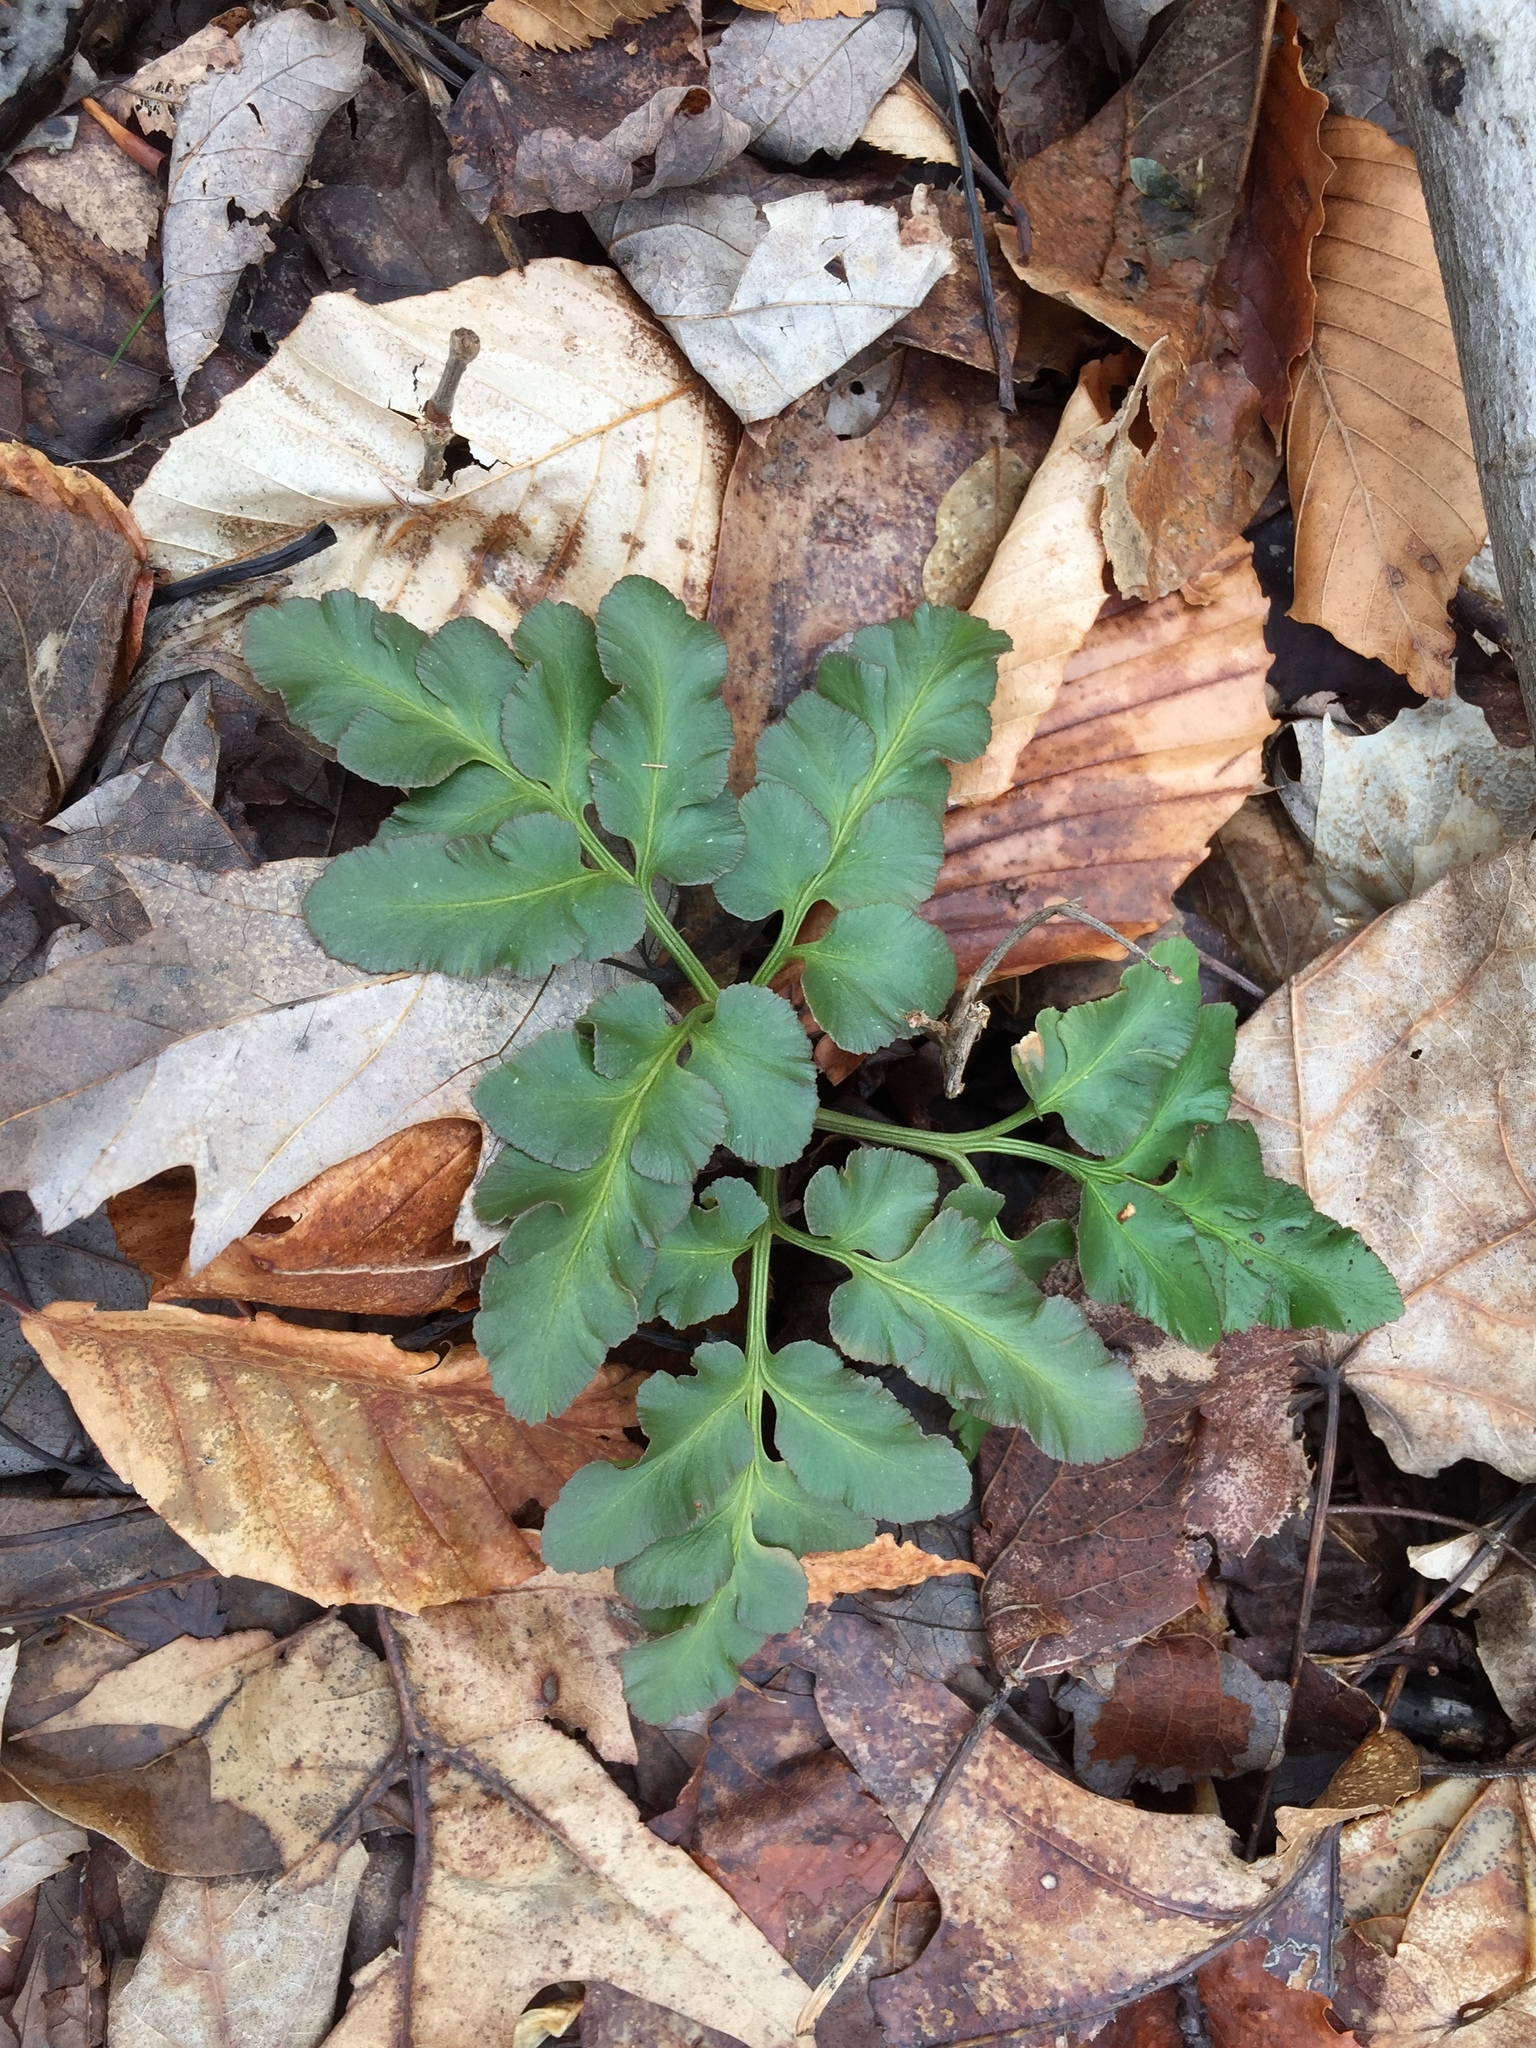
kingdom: Plantae
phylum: Tracheophyta
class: Polypodiopsida
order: Ophioglossales
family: Ophioglossaceae
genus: Sceptridium
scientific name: Sceptridium oneidense
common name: Blunt-lobed grapefern
